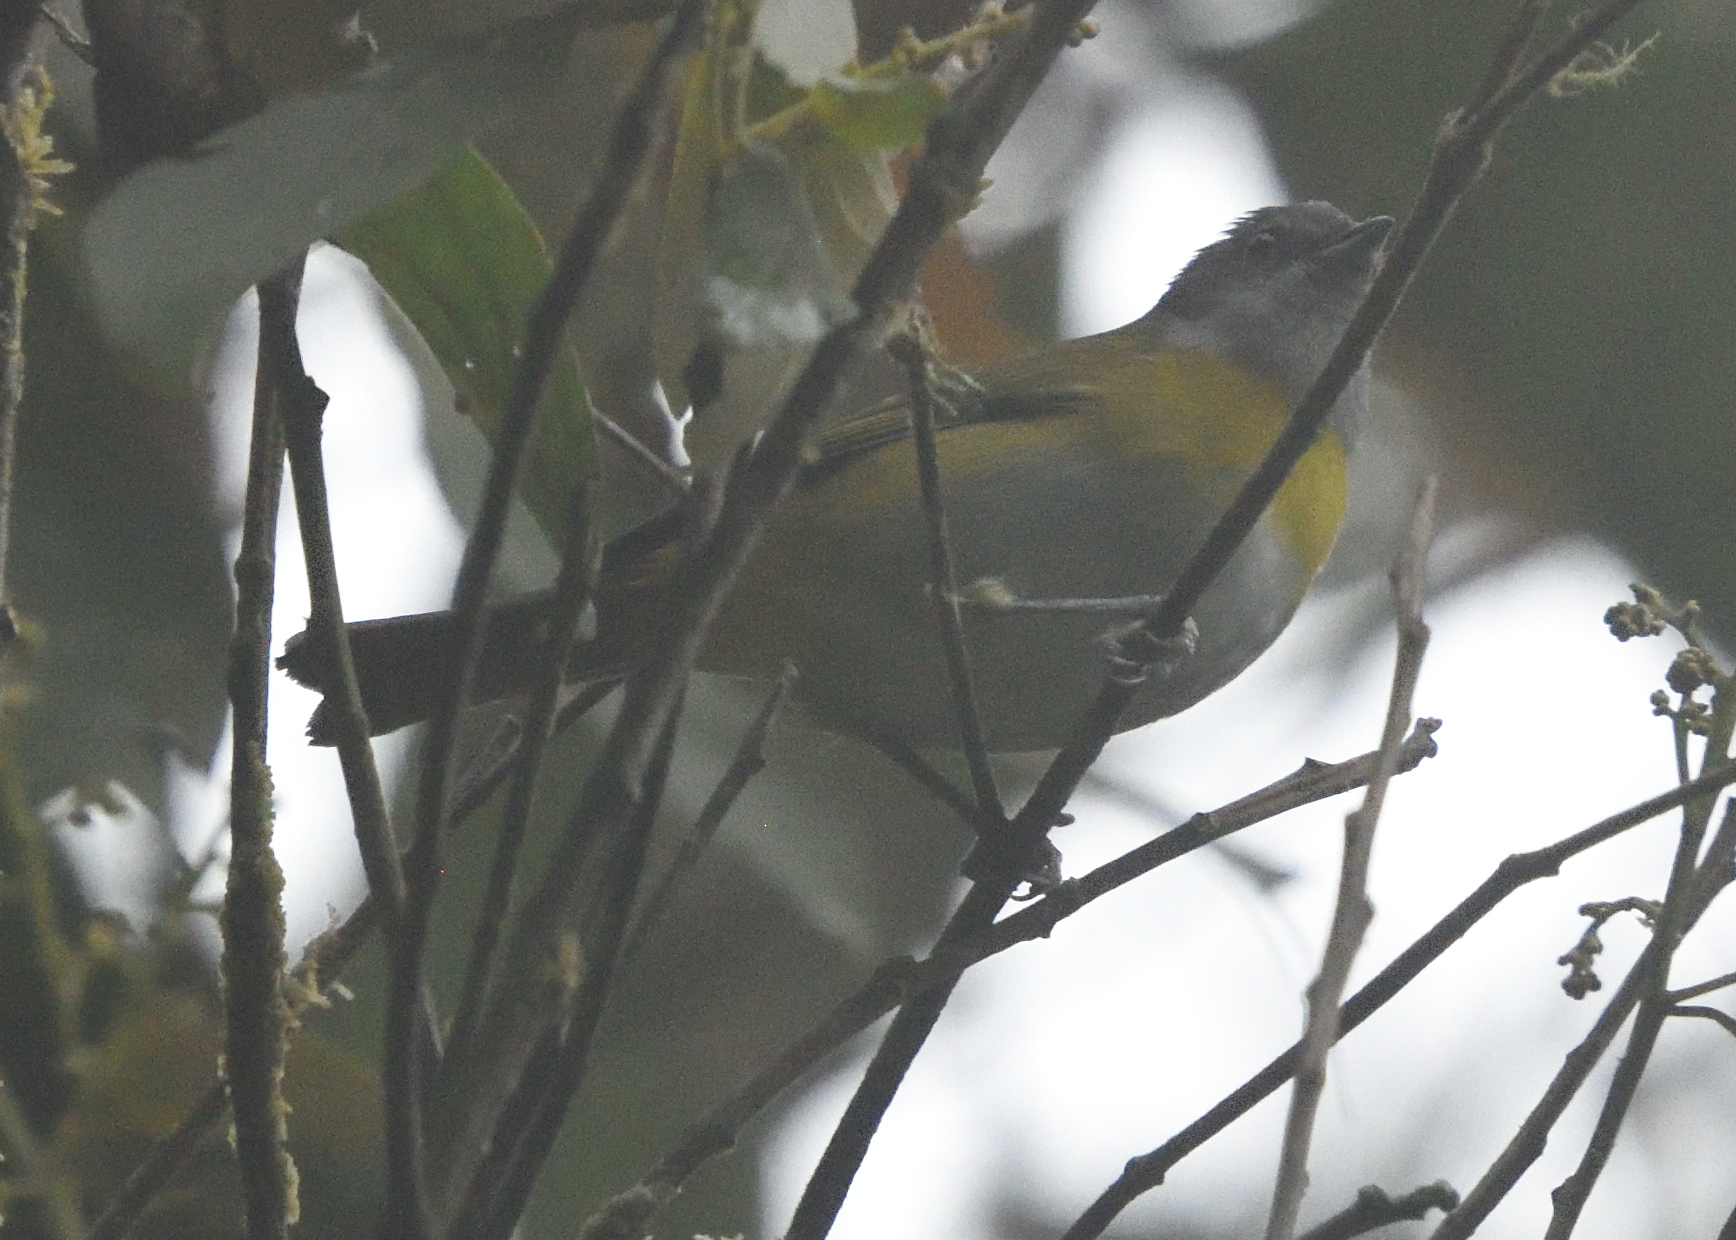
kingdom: Animalia
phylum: Chordata
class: Aves
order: Passeriformes
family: Passerellidae
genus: Chlorospingus
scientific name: Chlorospingus canigularis
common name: Ashy-throated bush-tanager
